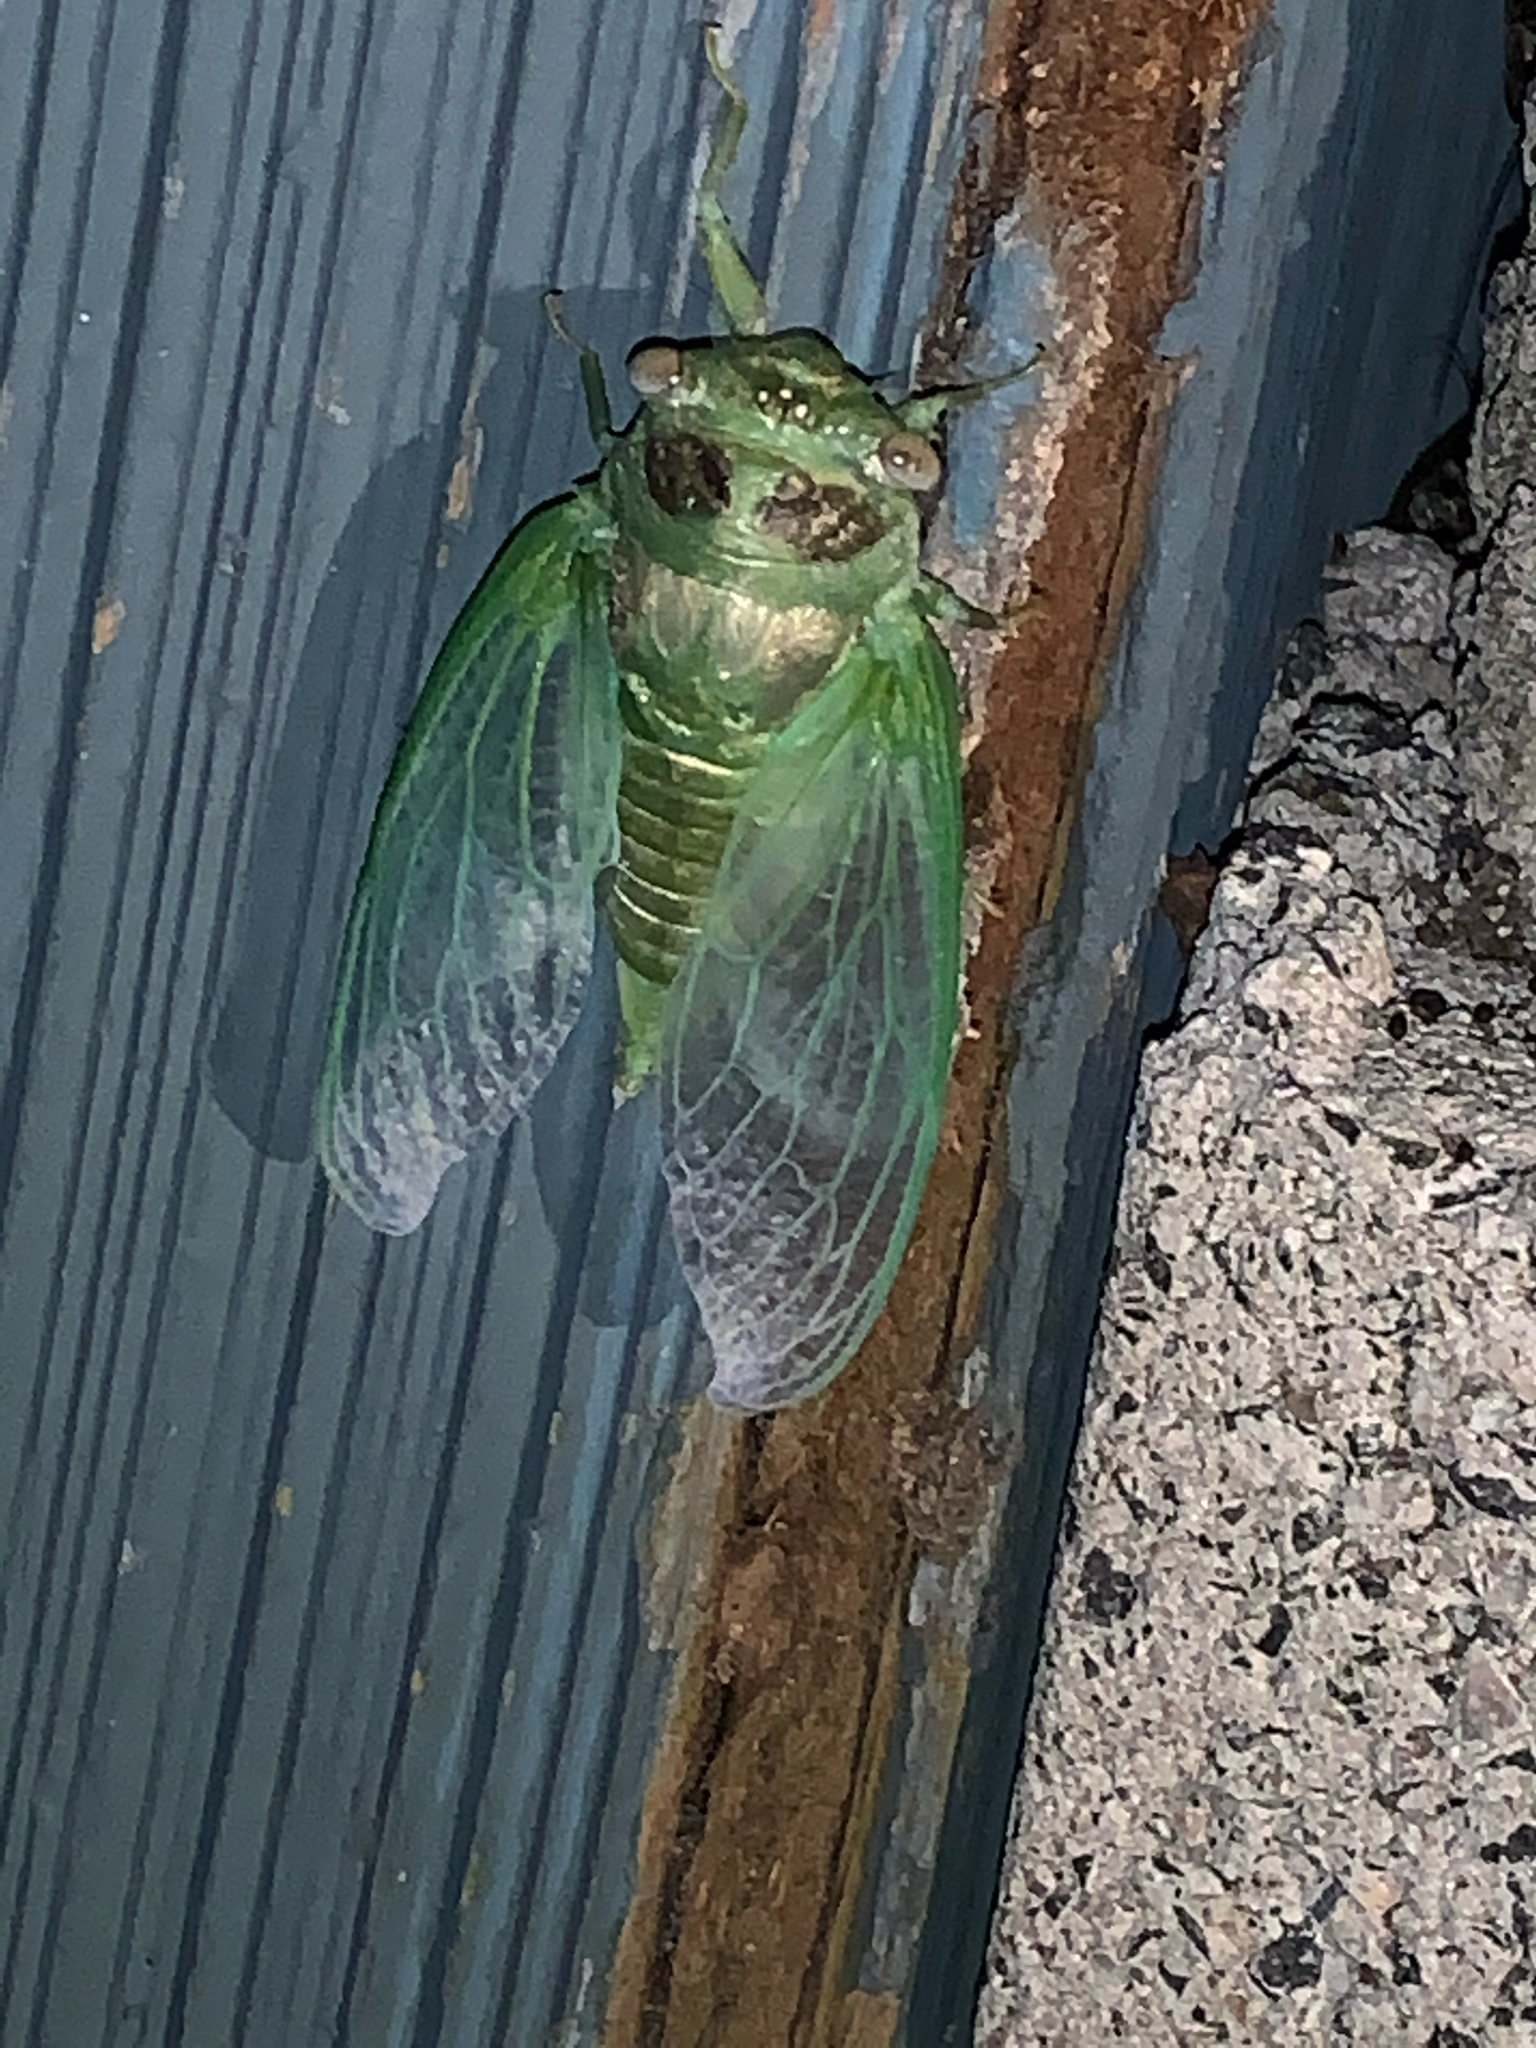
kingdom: Animalia
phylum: Arthropoda
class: Insecta
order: Hemiptera
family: Cicadidae
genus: Diceroprocta
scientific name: Diceroprocta grossa
